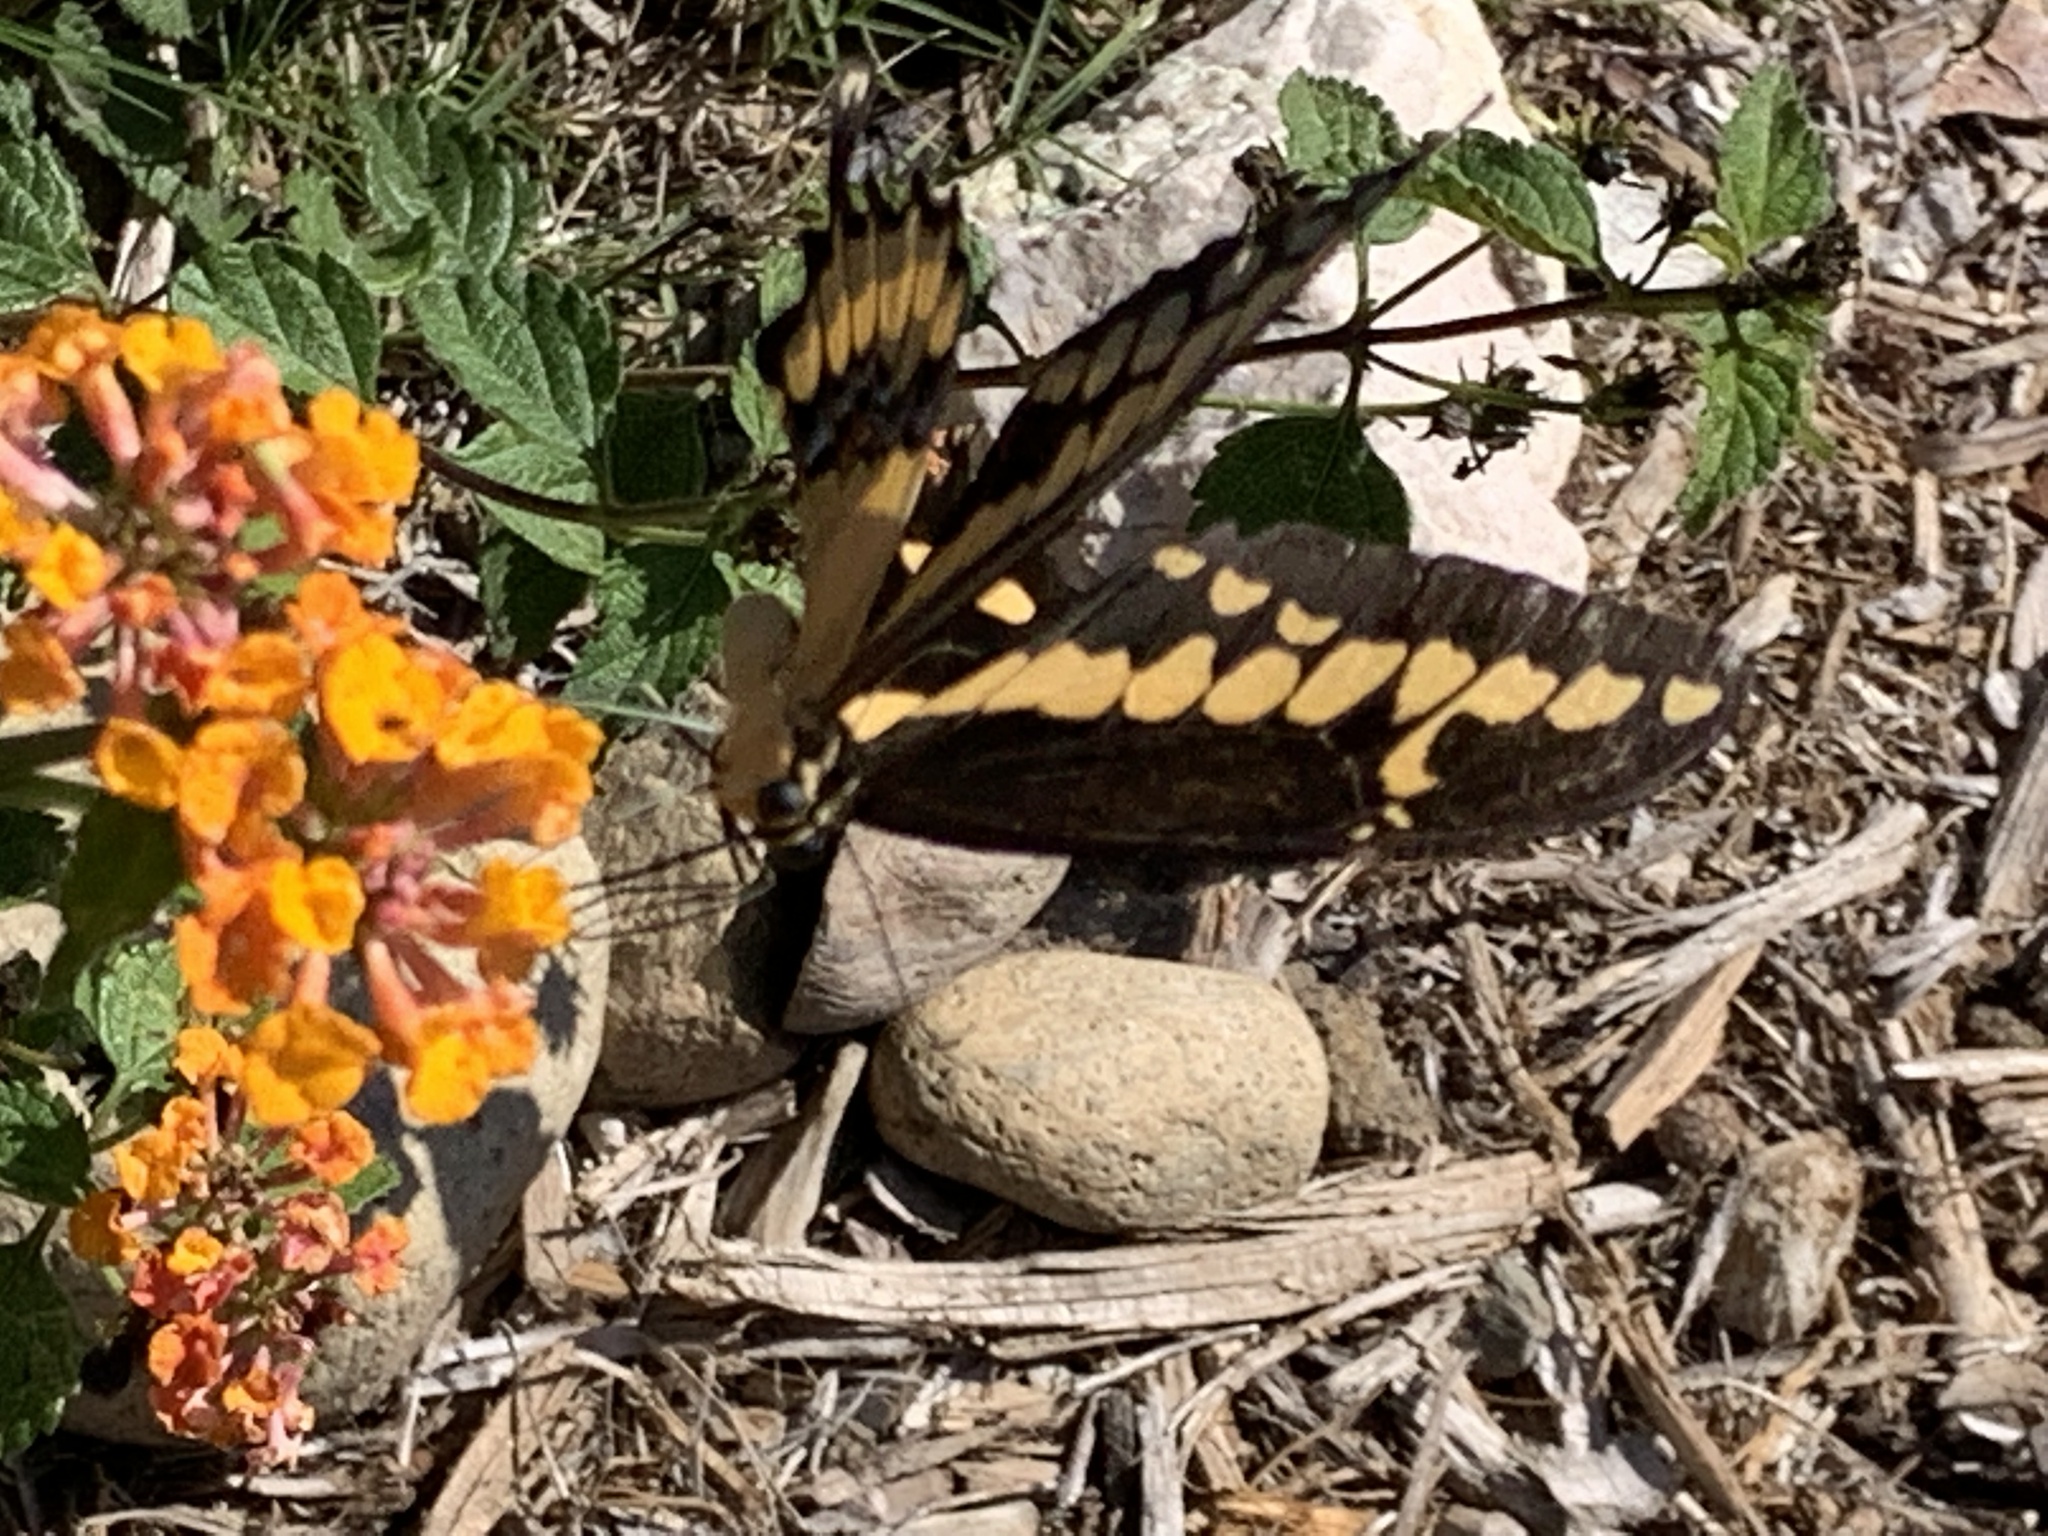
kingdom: Animalia
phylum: Arthropoda
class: Insecta
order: Lepidoptera
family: Papilionidae
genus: Papilio
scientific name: Papilio rumiko
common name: Western giant swallowtail
